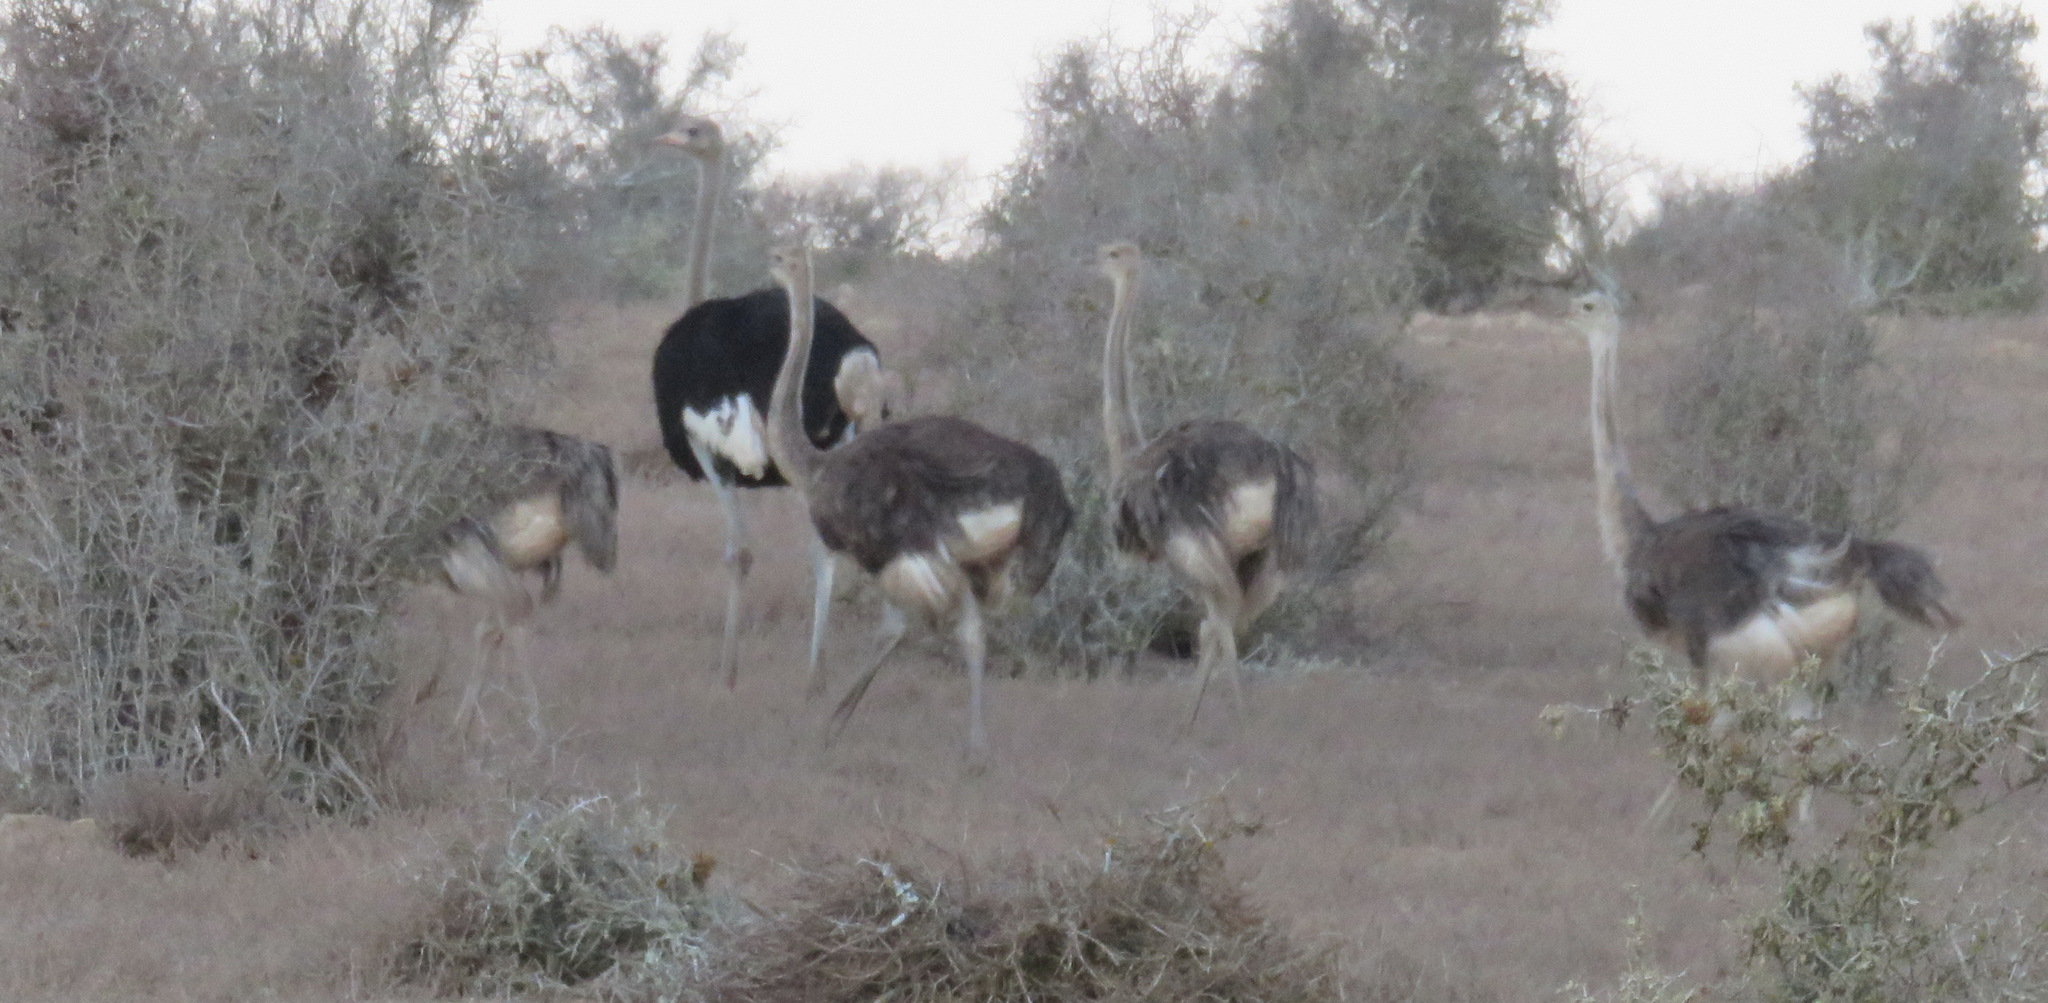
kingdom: Animalia
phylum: Chordata
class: Aves
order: Struthioniformes
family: Struthionidae
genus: Struthio
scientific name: Struthio camelus
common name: Common ostrich
